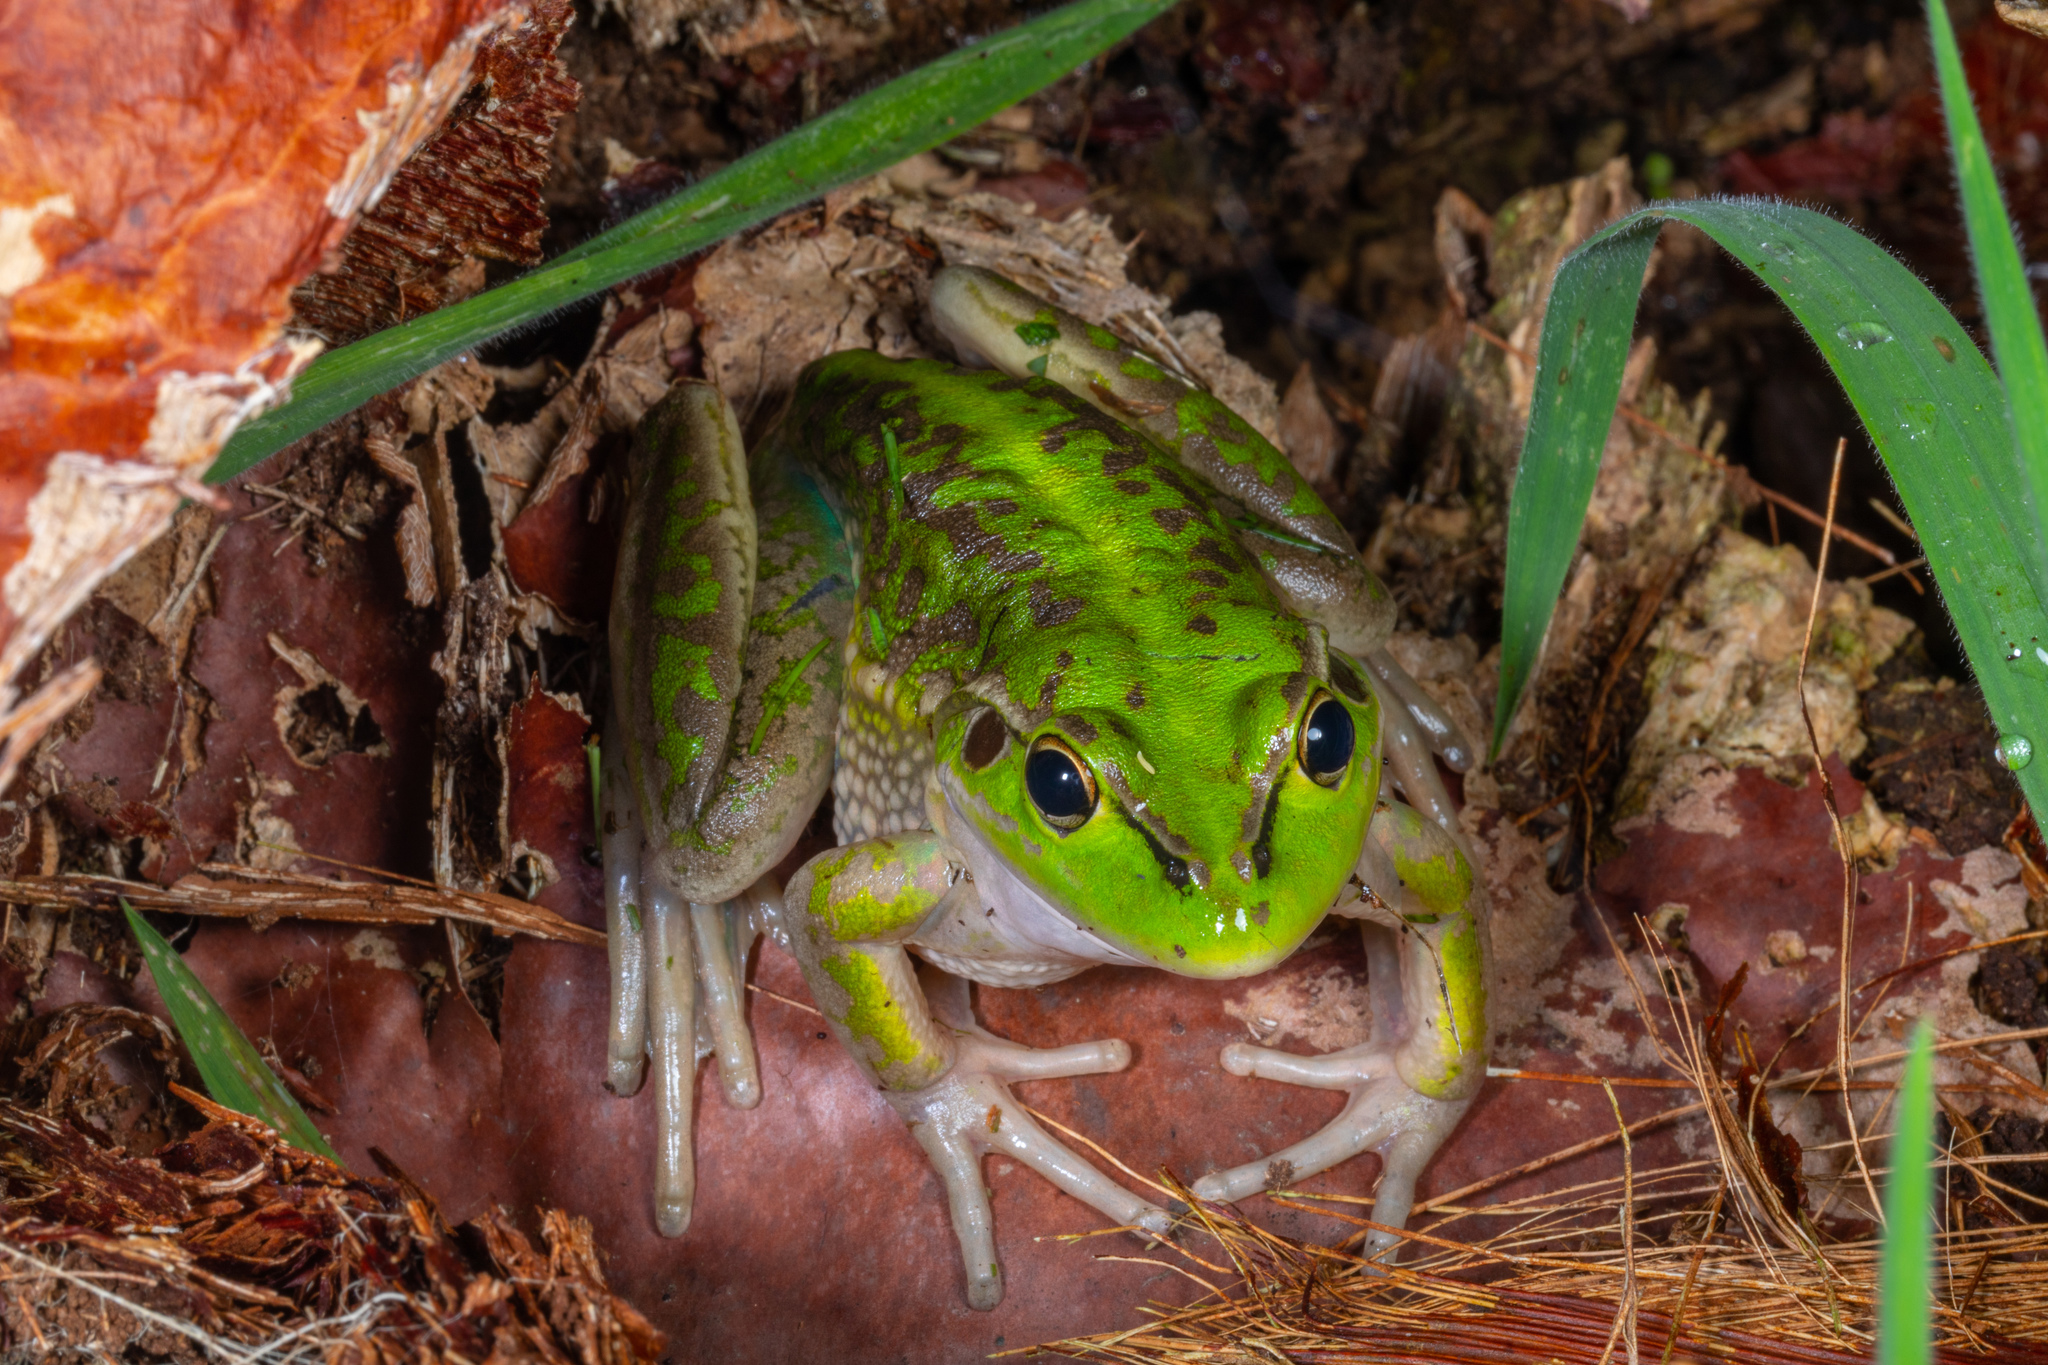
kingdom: Animalia
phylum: Chordata
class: Amphibia
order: Anura
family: Pelodryadidae
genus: Ranoidea
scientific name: Ranoidea raniformis
